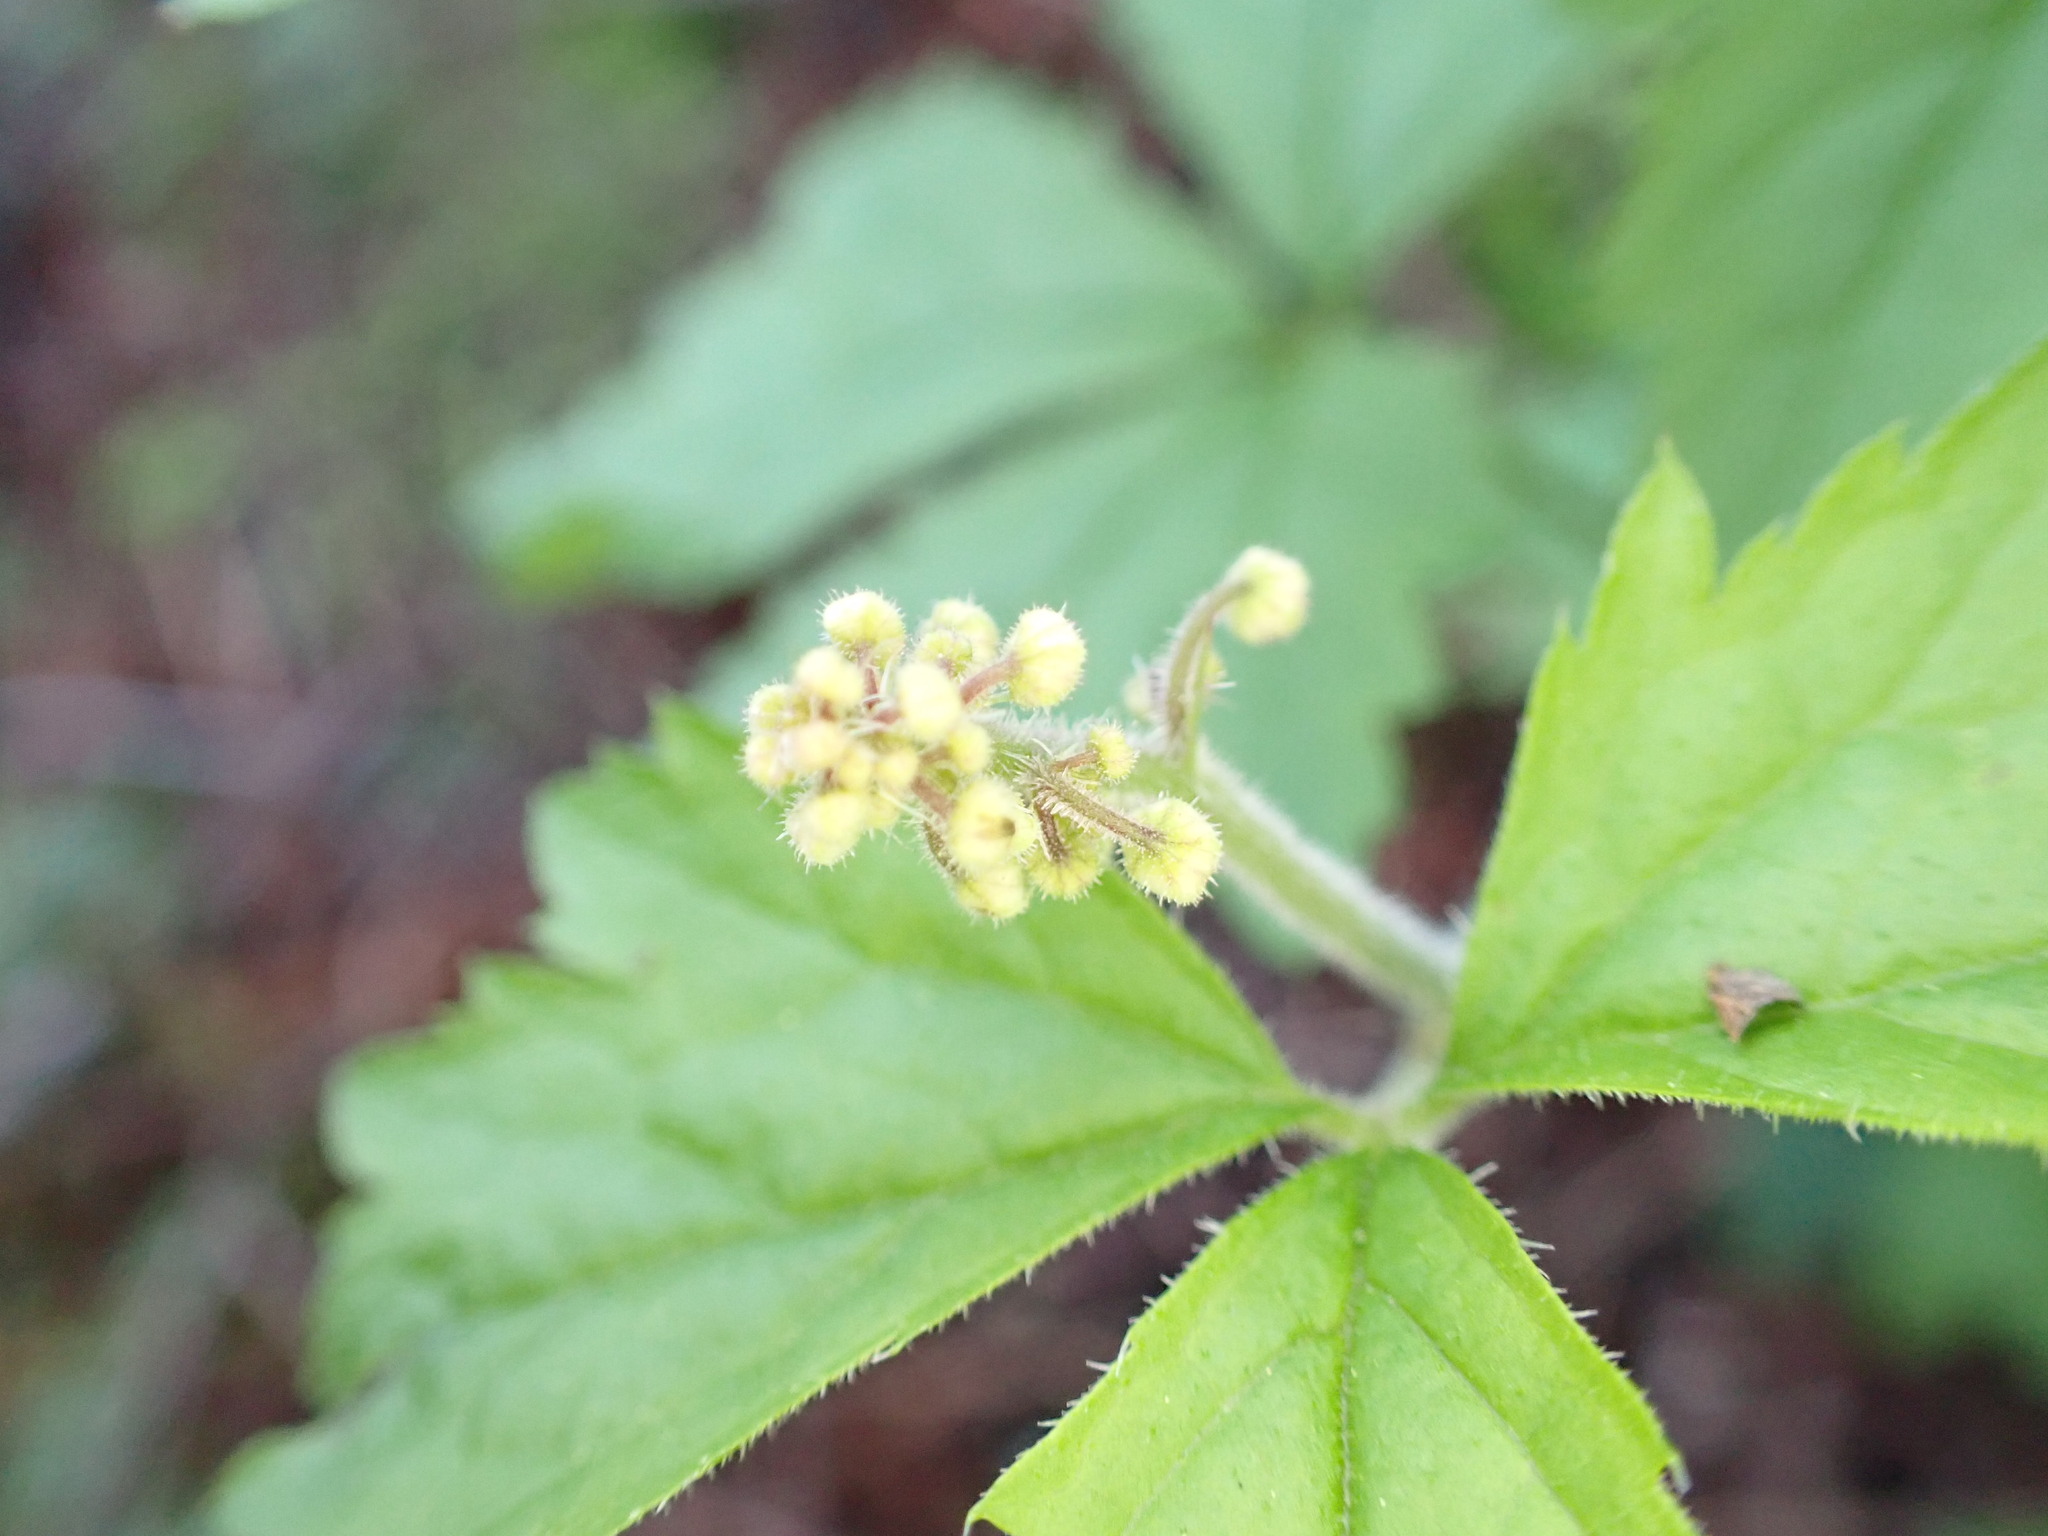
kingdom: Plantae
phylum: Tracheophyta
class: Magnoliopsida
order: Saxifragales
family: Saxifragaceae
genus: Tiarella
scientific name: Tiarella trifoliata
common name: Sugar-scoop
